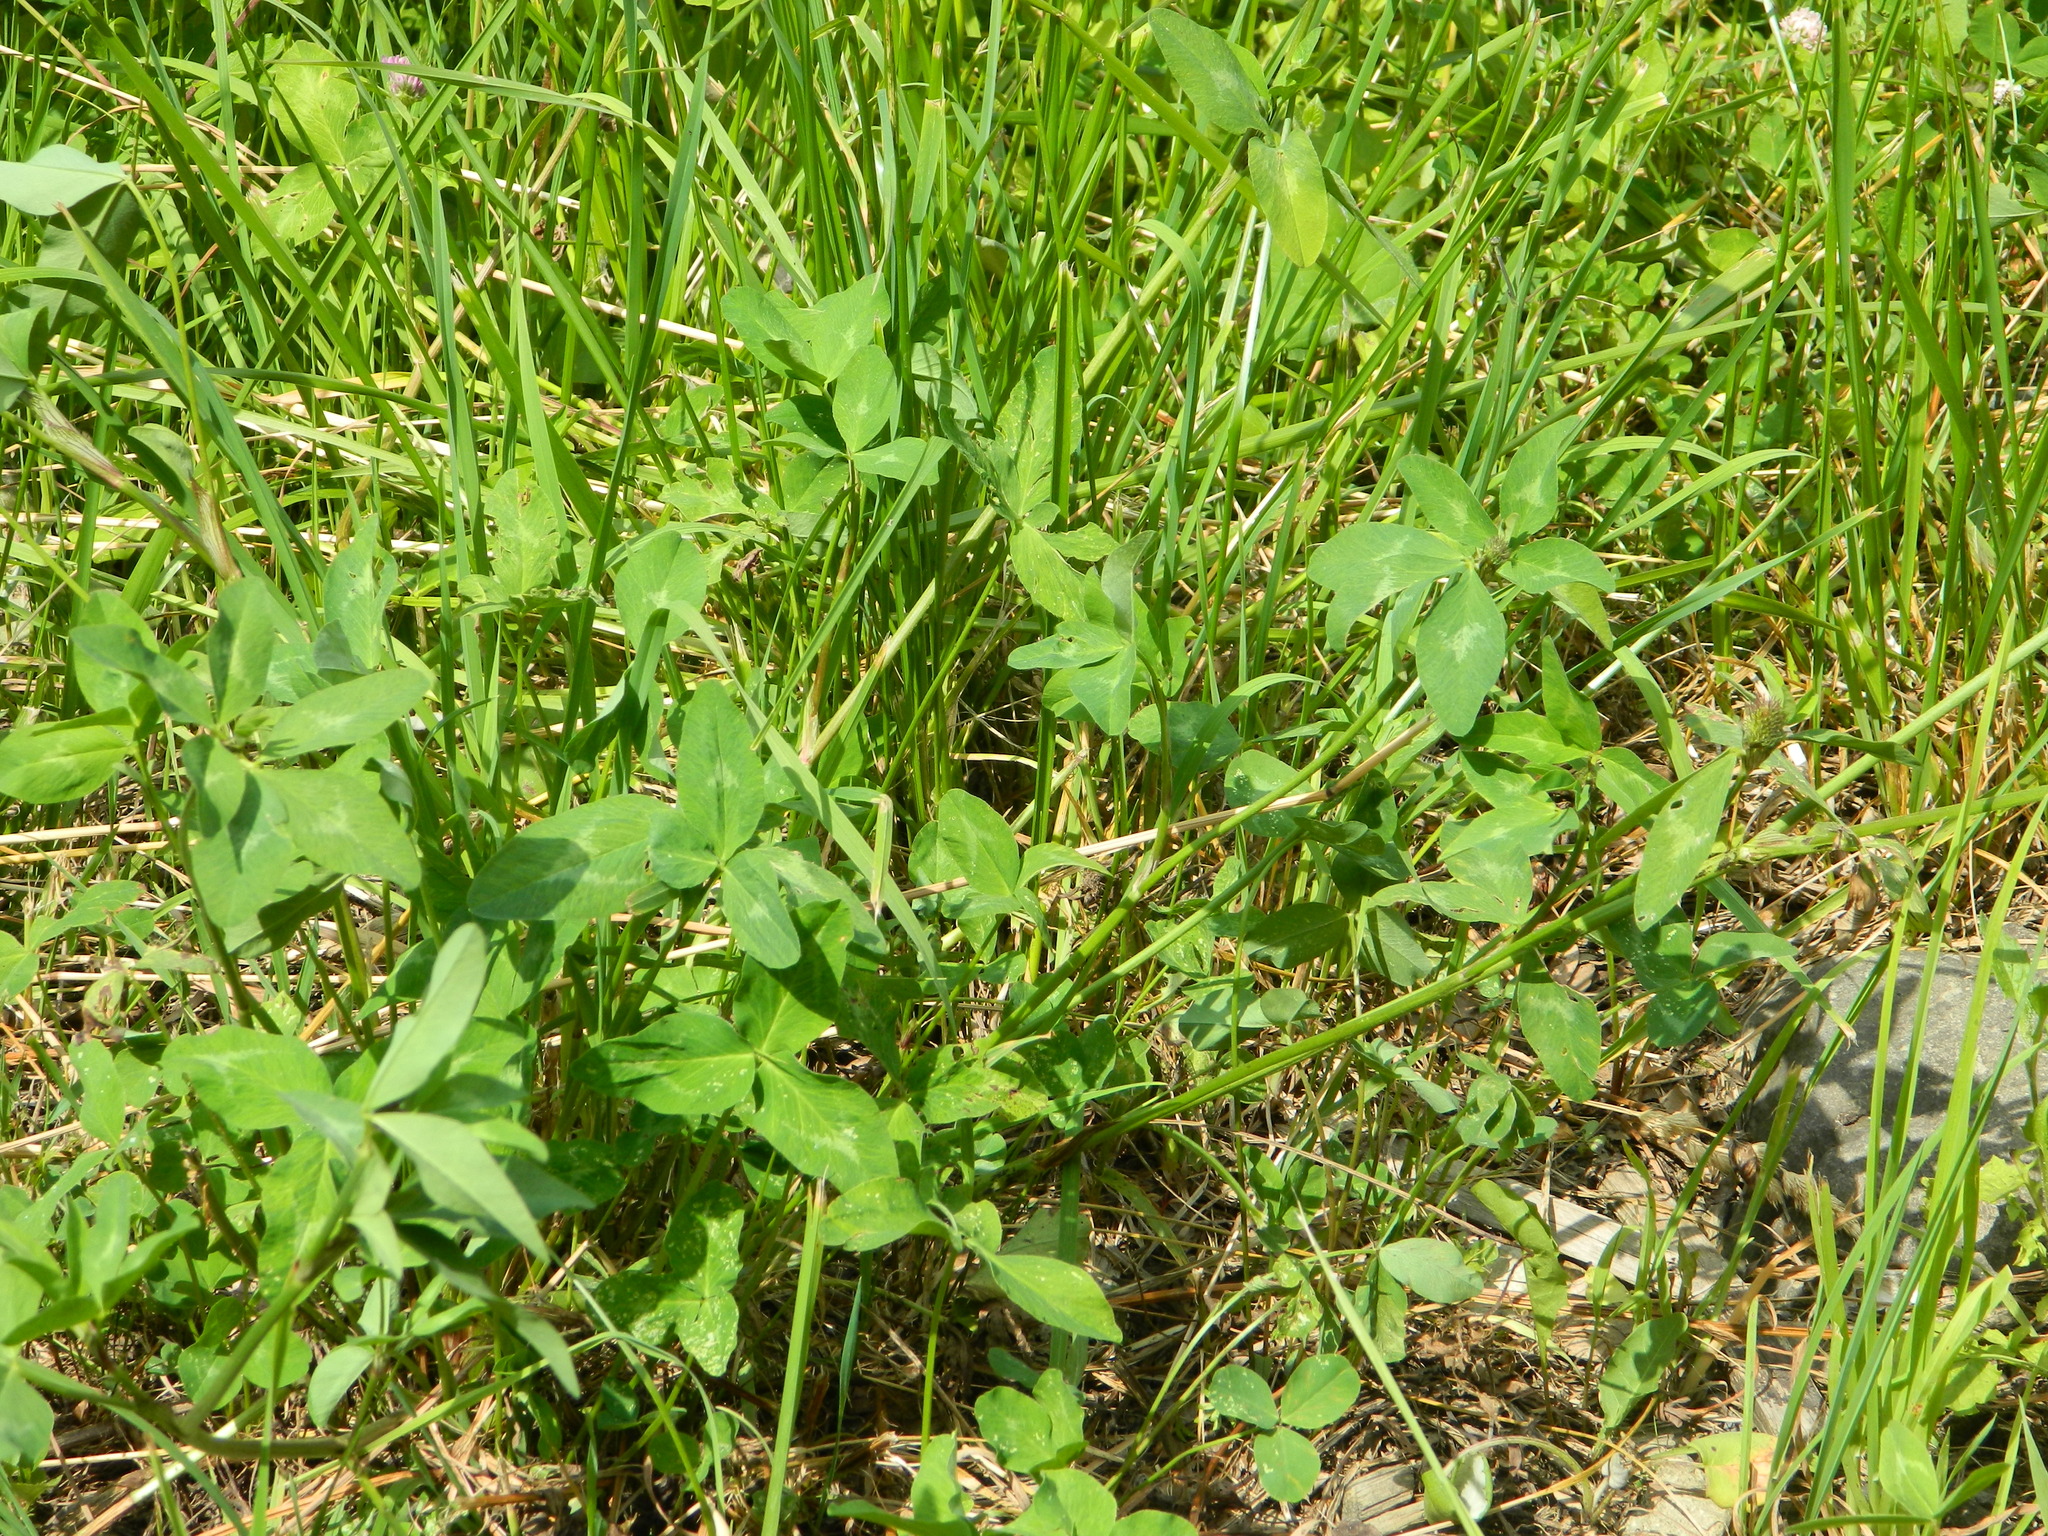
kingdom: Plantae
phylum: Tracheophyta
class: Magnoliopsida
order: Fabales
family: Fabaceae
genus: Trifolium
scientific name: Trifolium pratense
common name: Red clover
